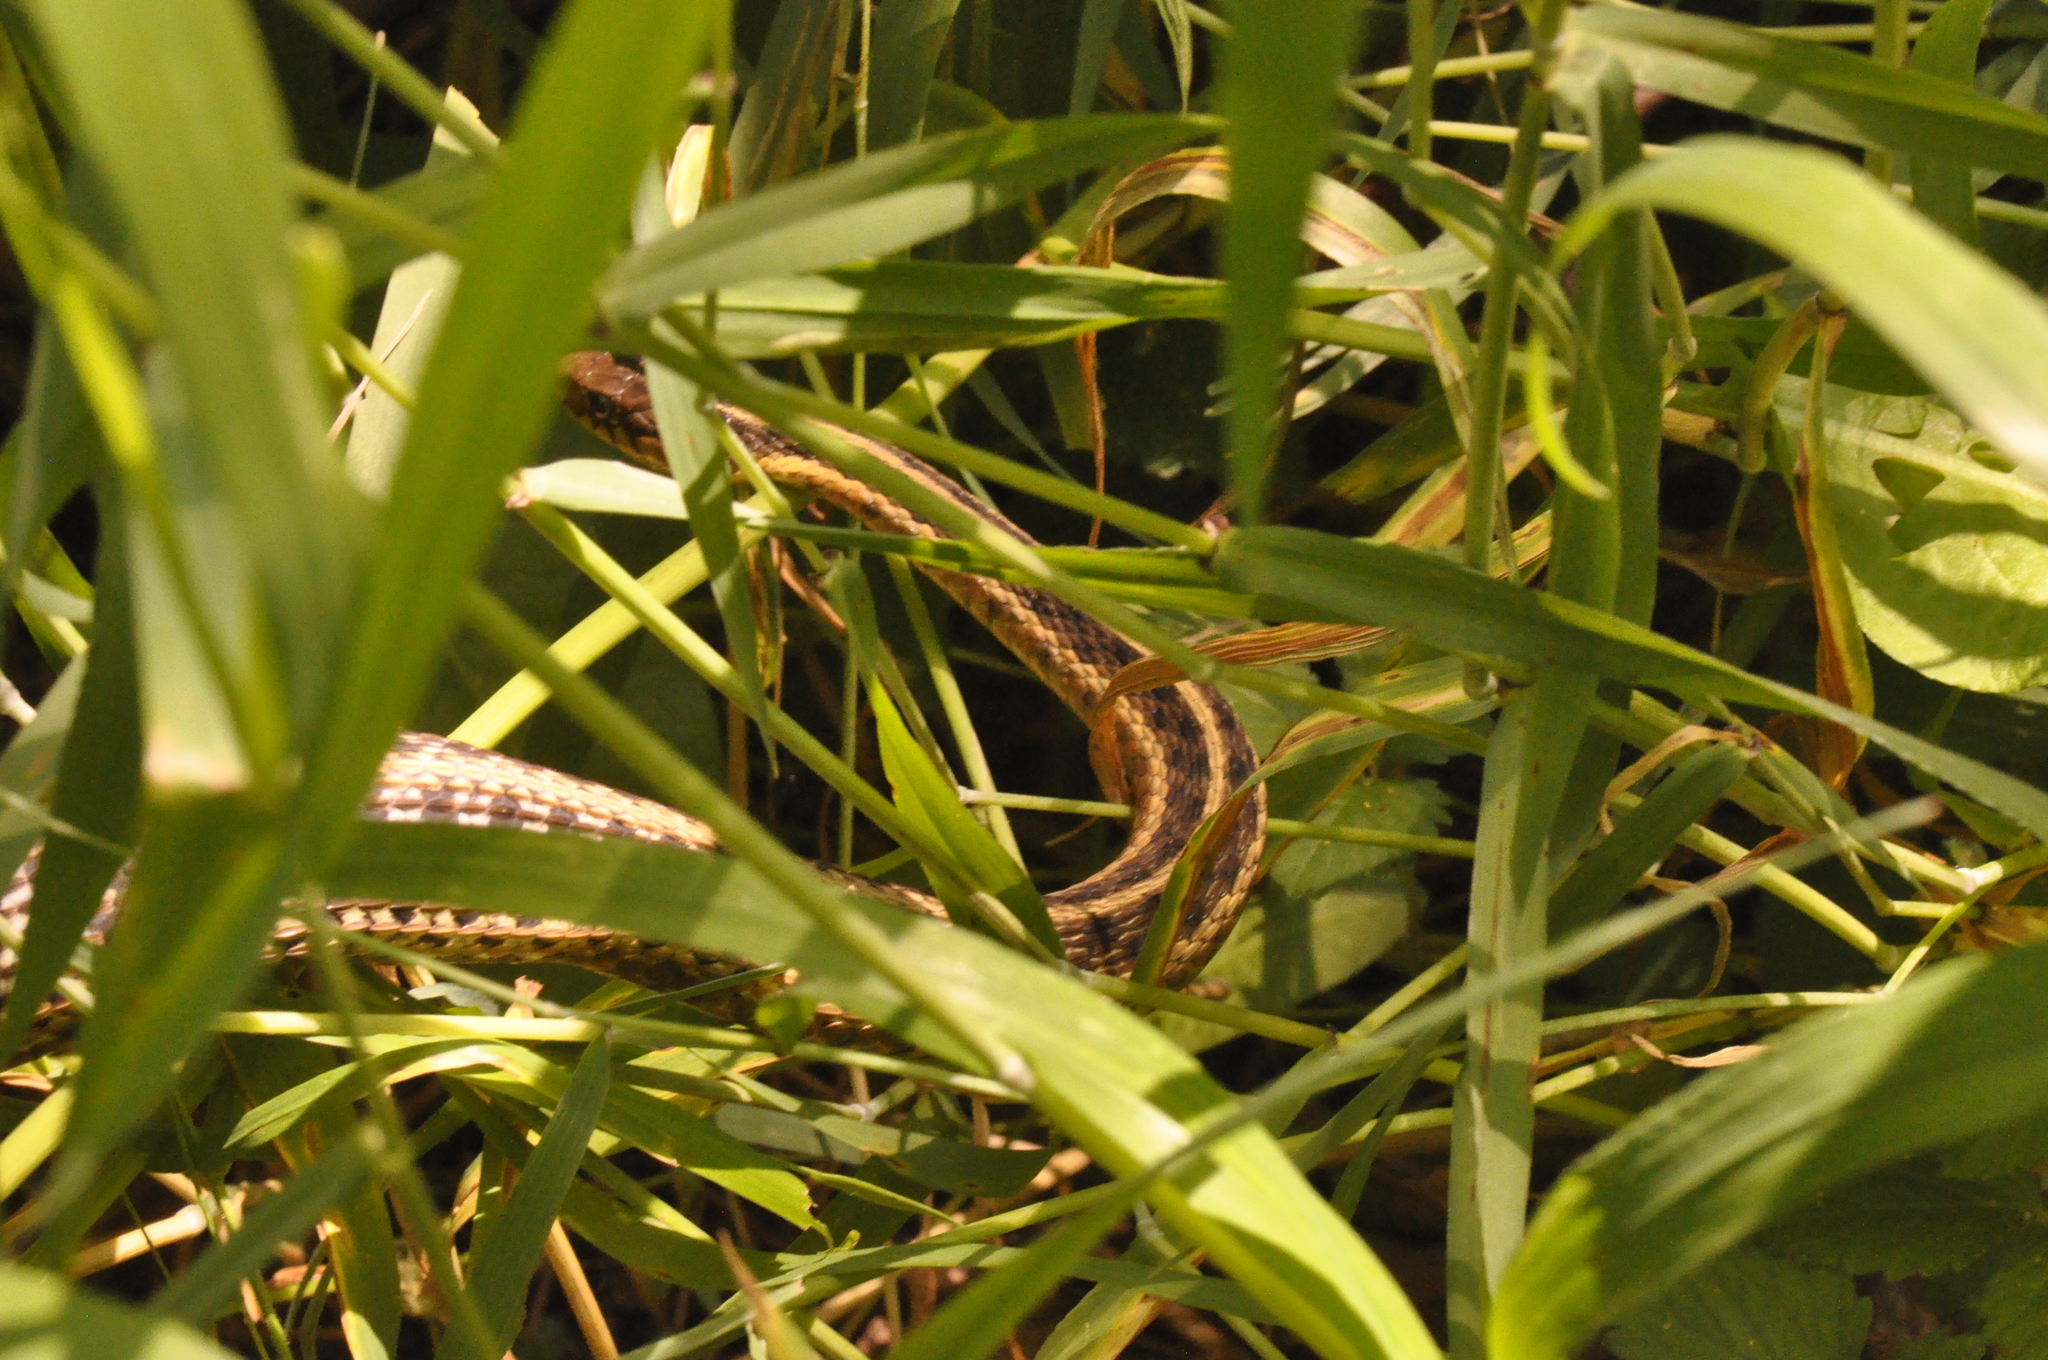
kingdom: Animalia
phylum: Chordata
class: Squamata
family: Colubridae
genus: Thamnophis
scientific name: Thamnophis sirtalis
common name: Common garter snake
